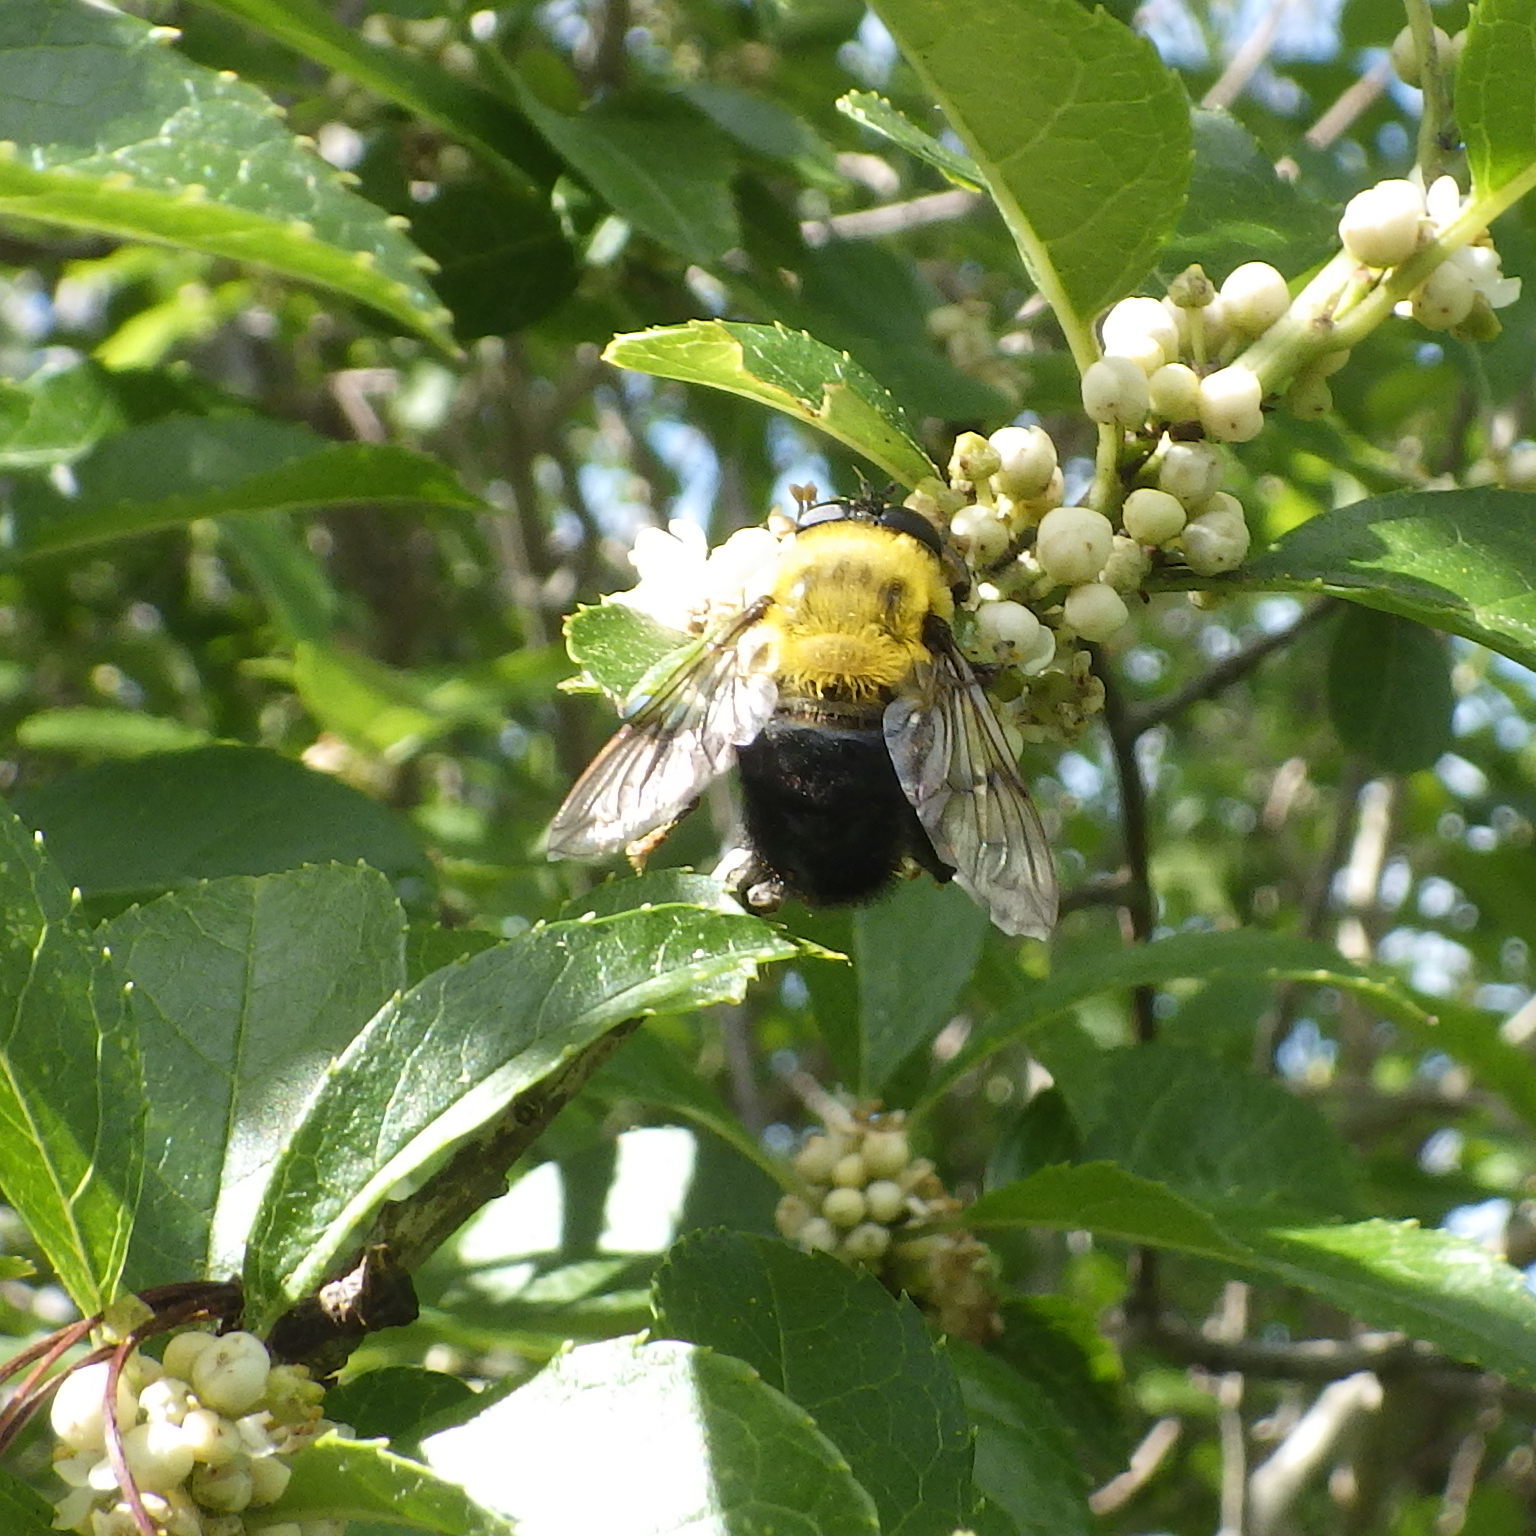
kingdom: Animalia
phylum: Arthropoda
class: Insecta
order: Diptera
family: Syrphidae
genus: Imatisma
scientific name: Imatisma bautias
